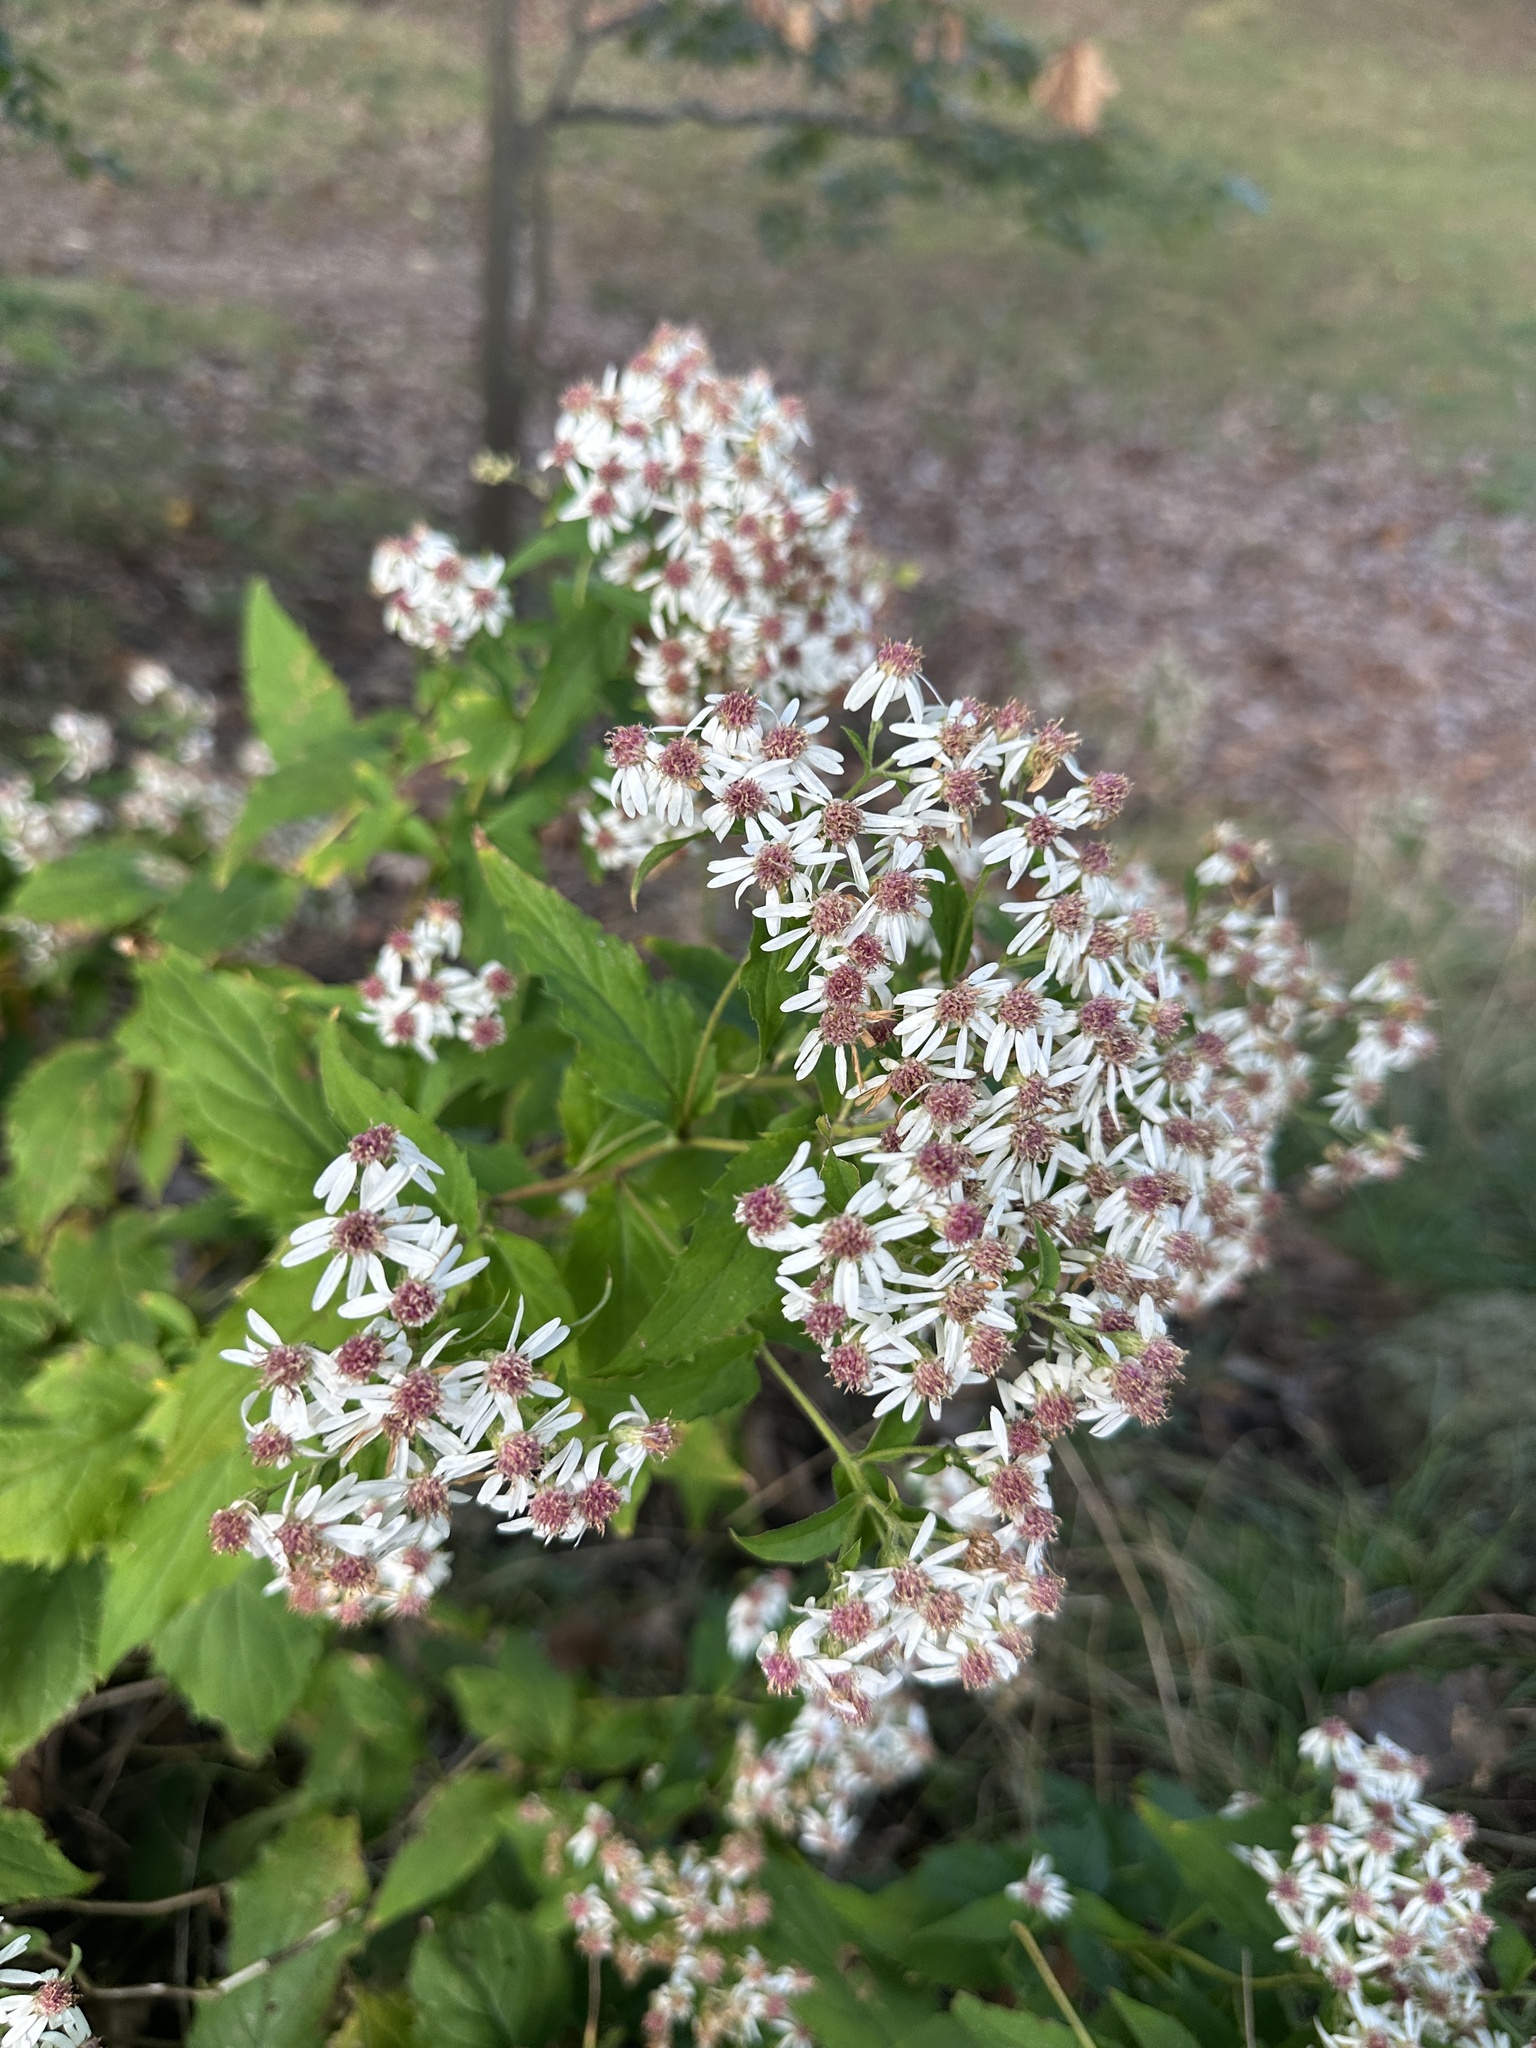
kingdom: Plantae
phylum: Tracheophyta
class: Magnoliopsida
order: Asterales
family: Asteraceae
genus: Eurybia
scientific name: Eurybia divaricata
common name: White wood aster
